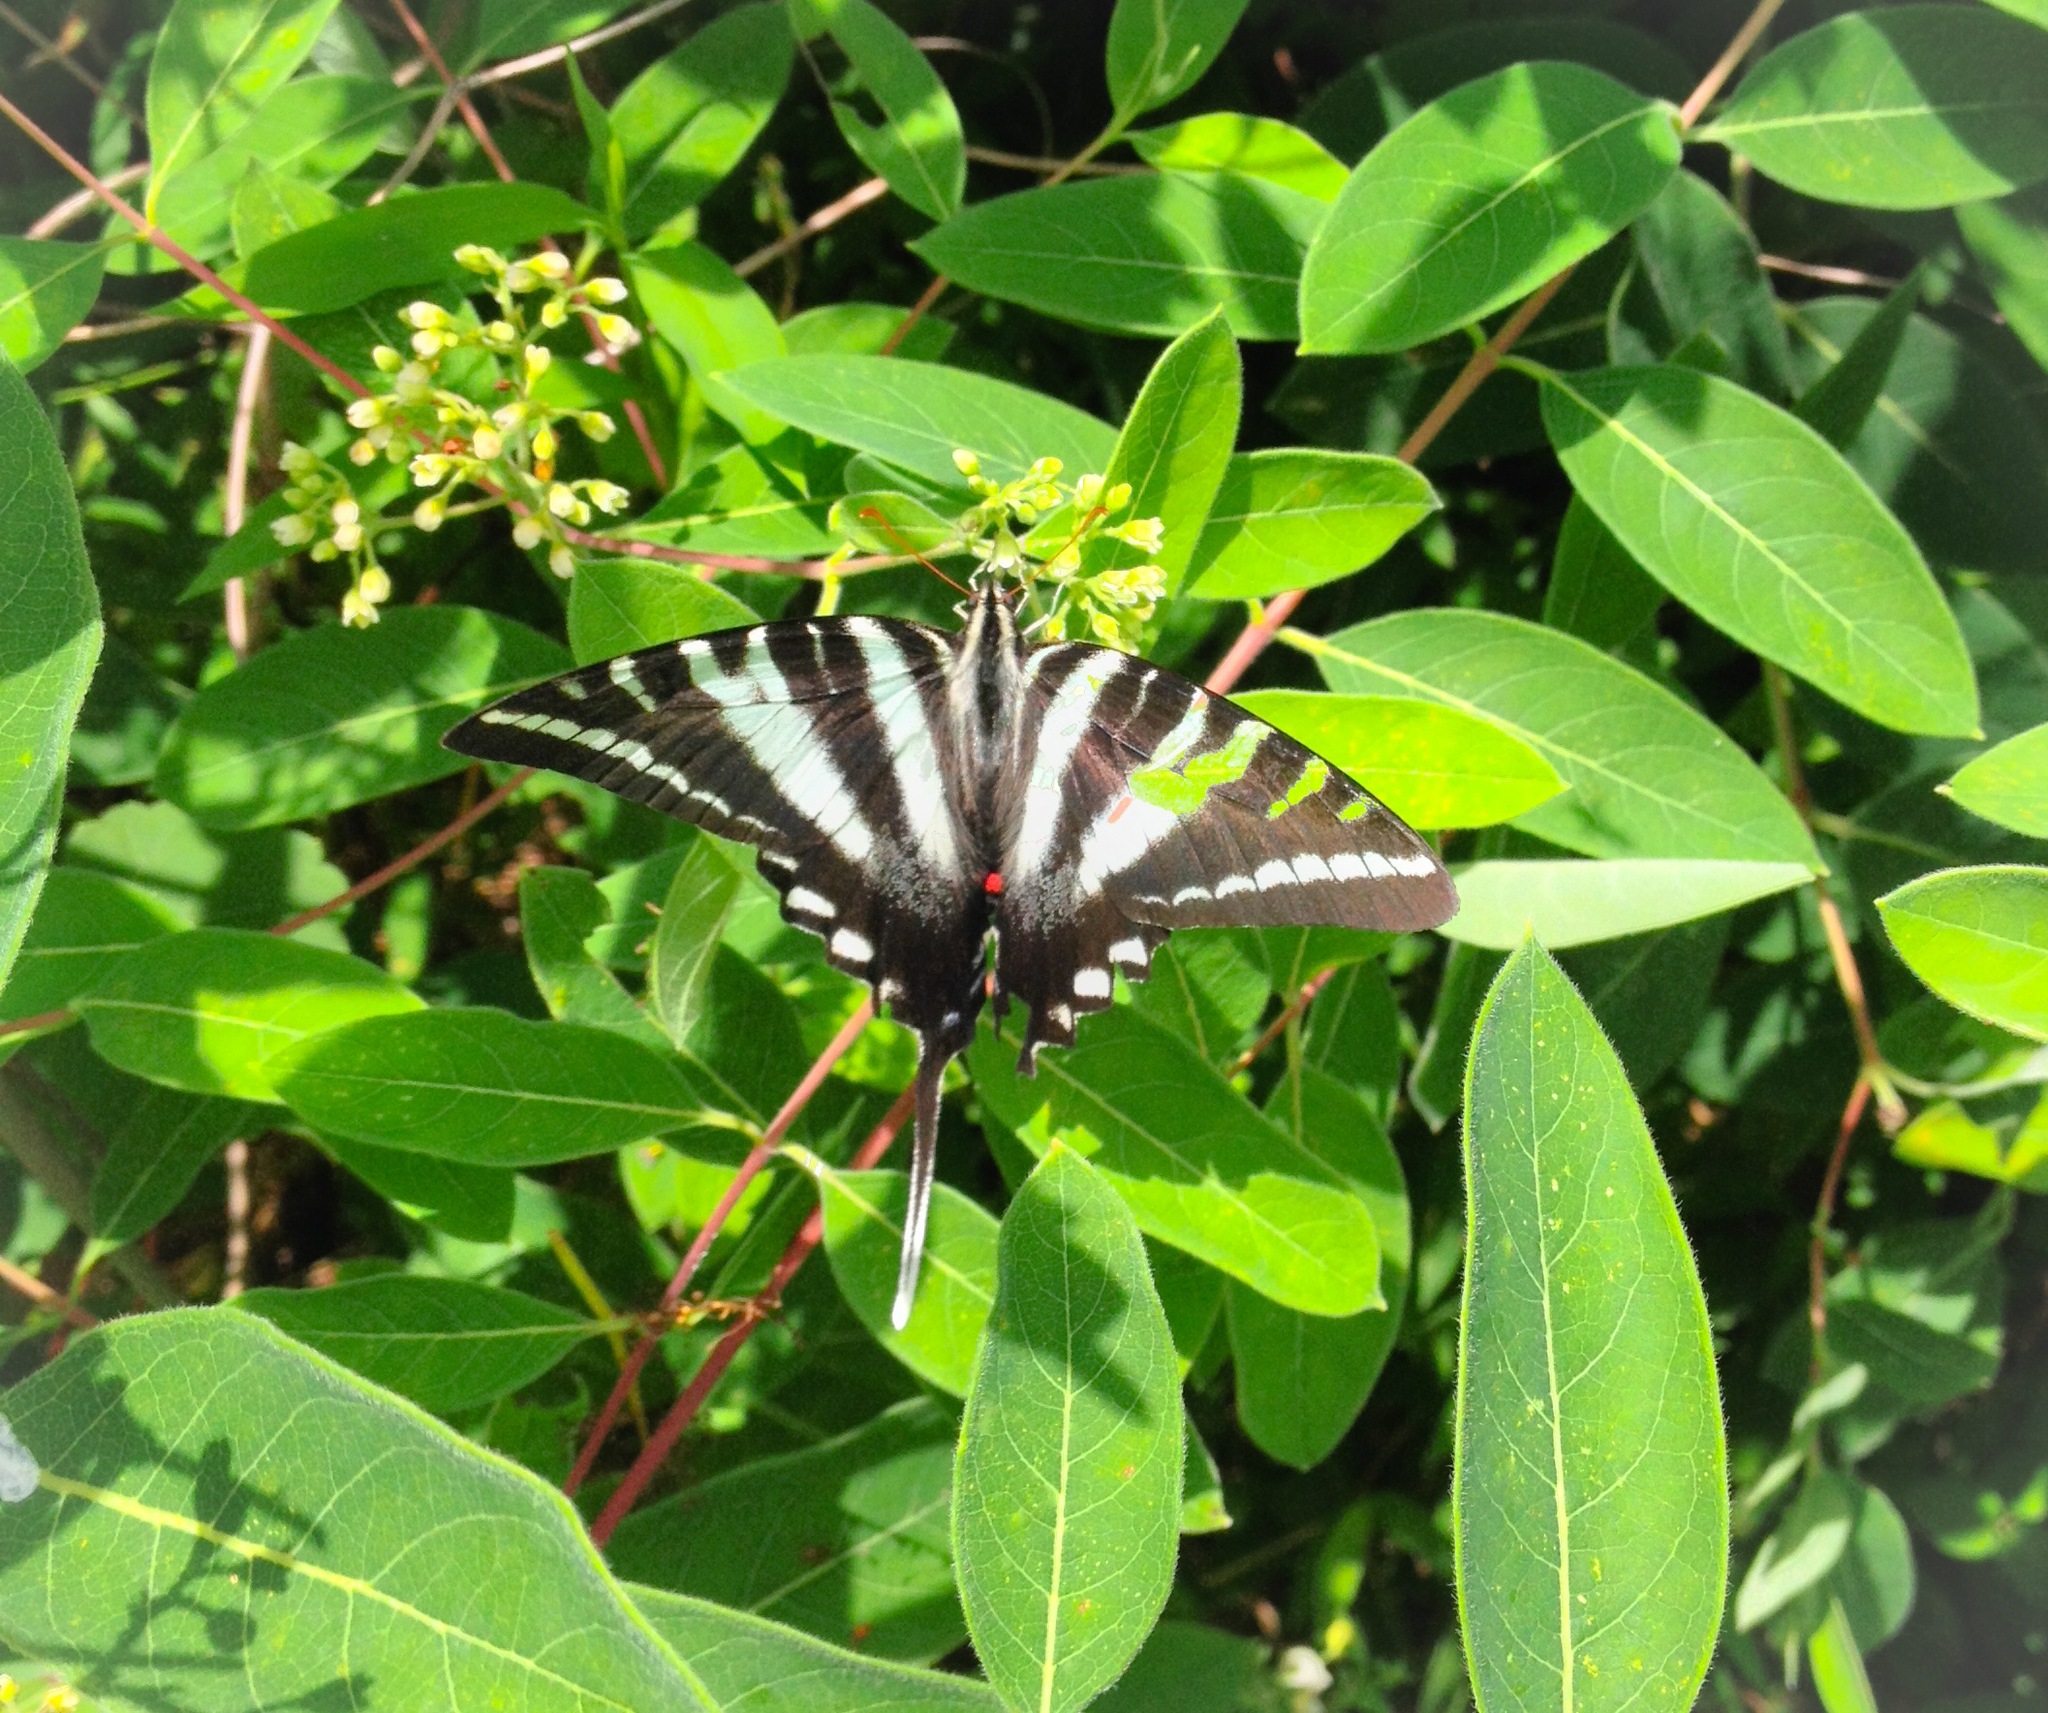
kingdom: Animalia
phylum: Arthropoda
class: Insecta
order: Lepidoptera
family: Papilionidae
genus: Protographium
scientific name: Protographium marcellus
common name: Zebra swallowtail
